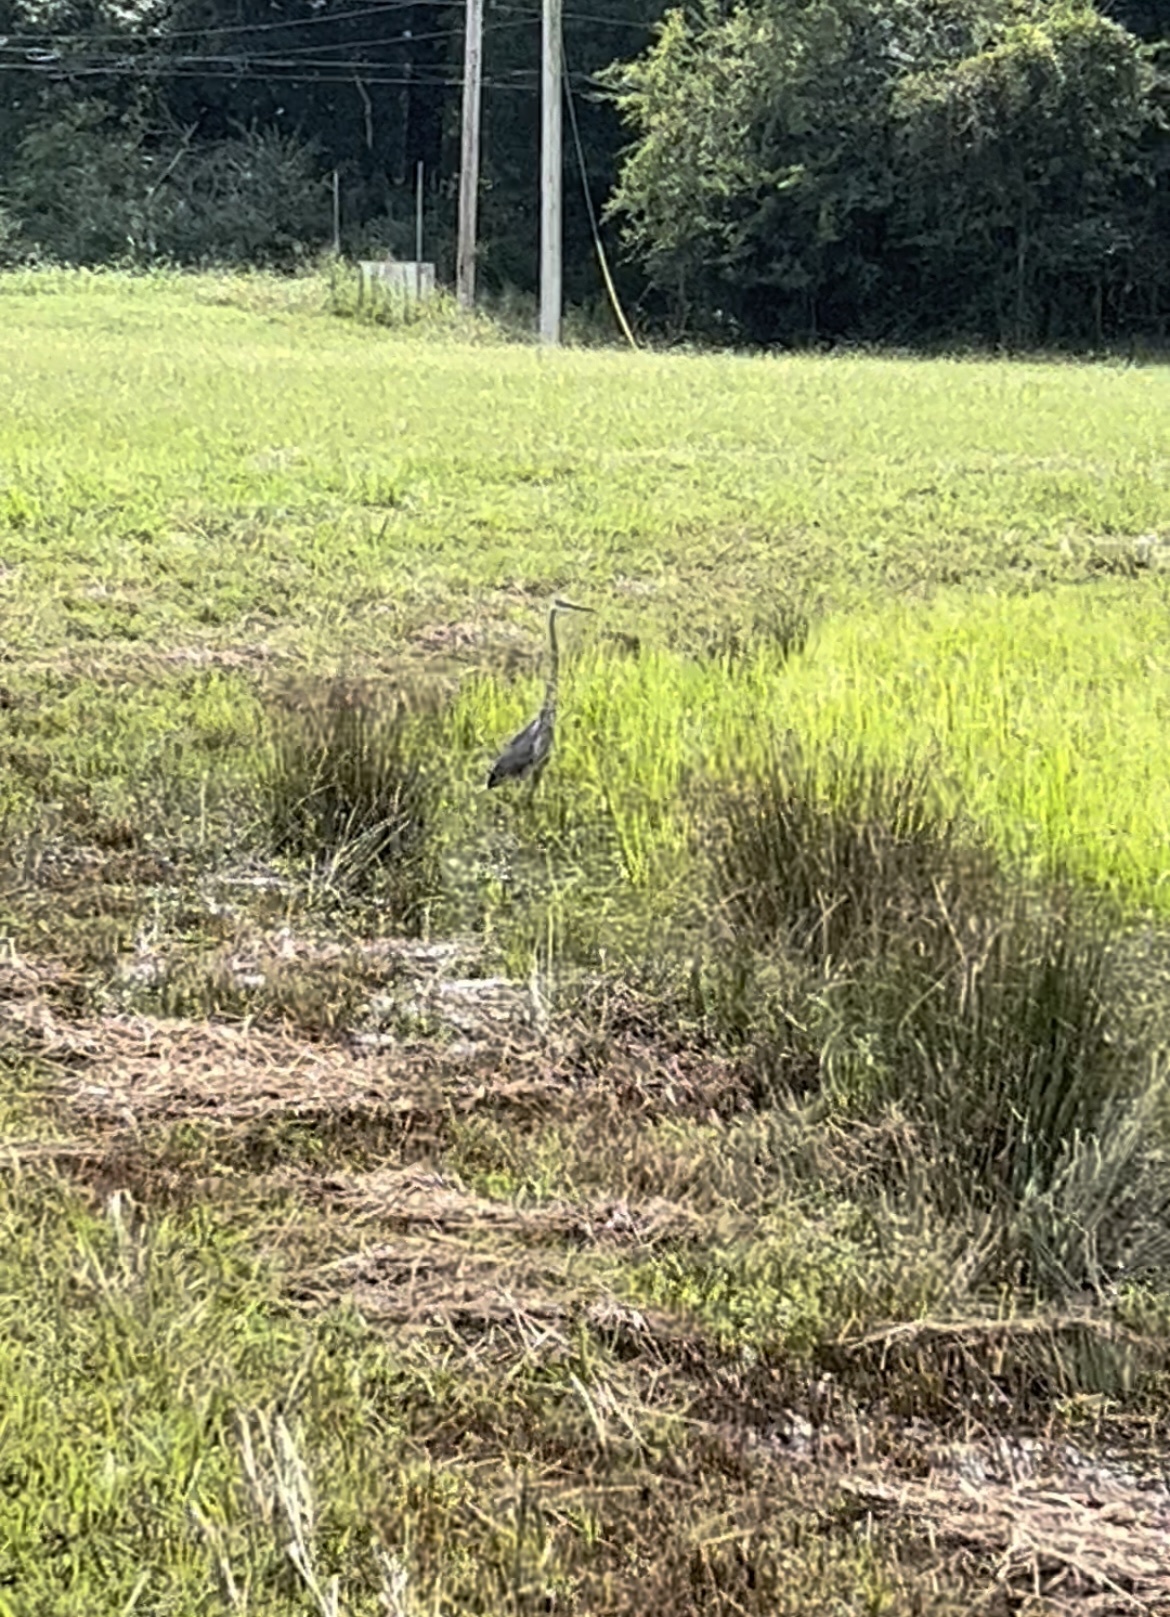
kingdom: Animalia
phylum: Chordata
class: Aves
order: Pelecaniformes
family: Ardeidae
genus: Ardea
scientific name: Ardea herodias
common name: Great blue heron
